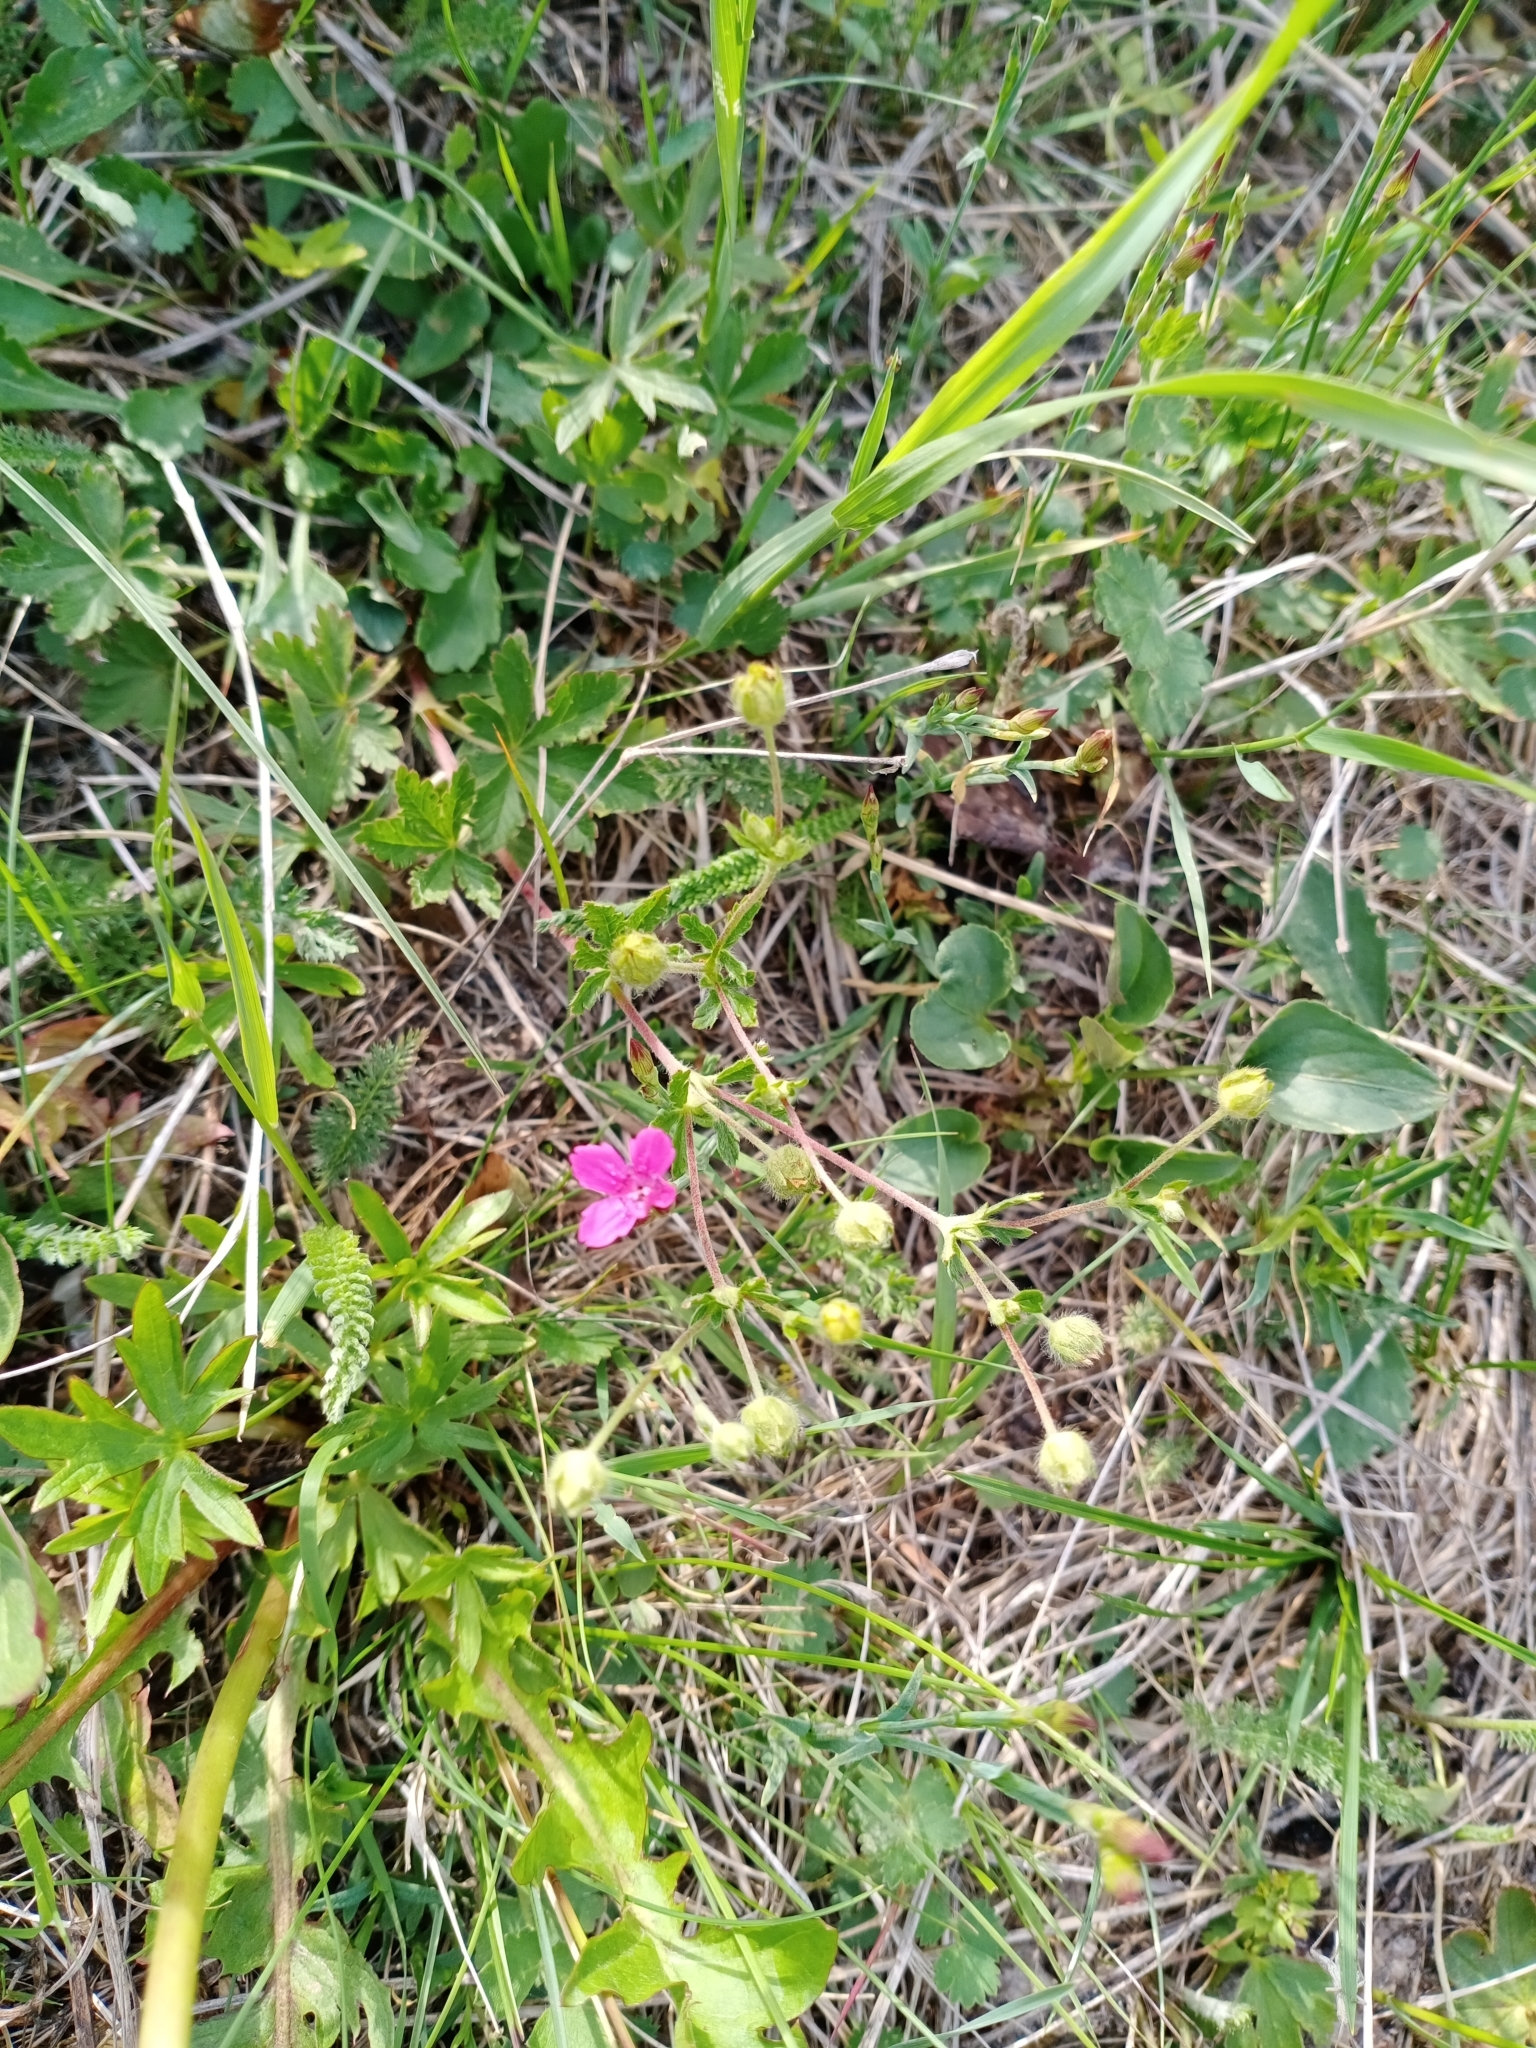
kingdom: Plantae
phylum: Tracheophyta
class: Magnoliopsida
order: Caryophyllales
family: Caryophyllaceae
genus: Dianthus
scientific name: Dianthus deltoides
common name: Maiden pink
